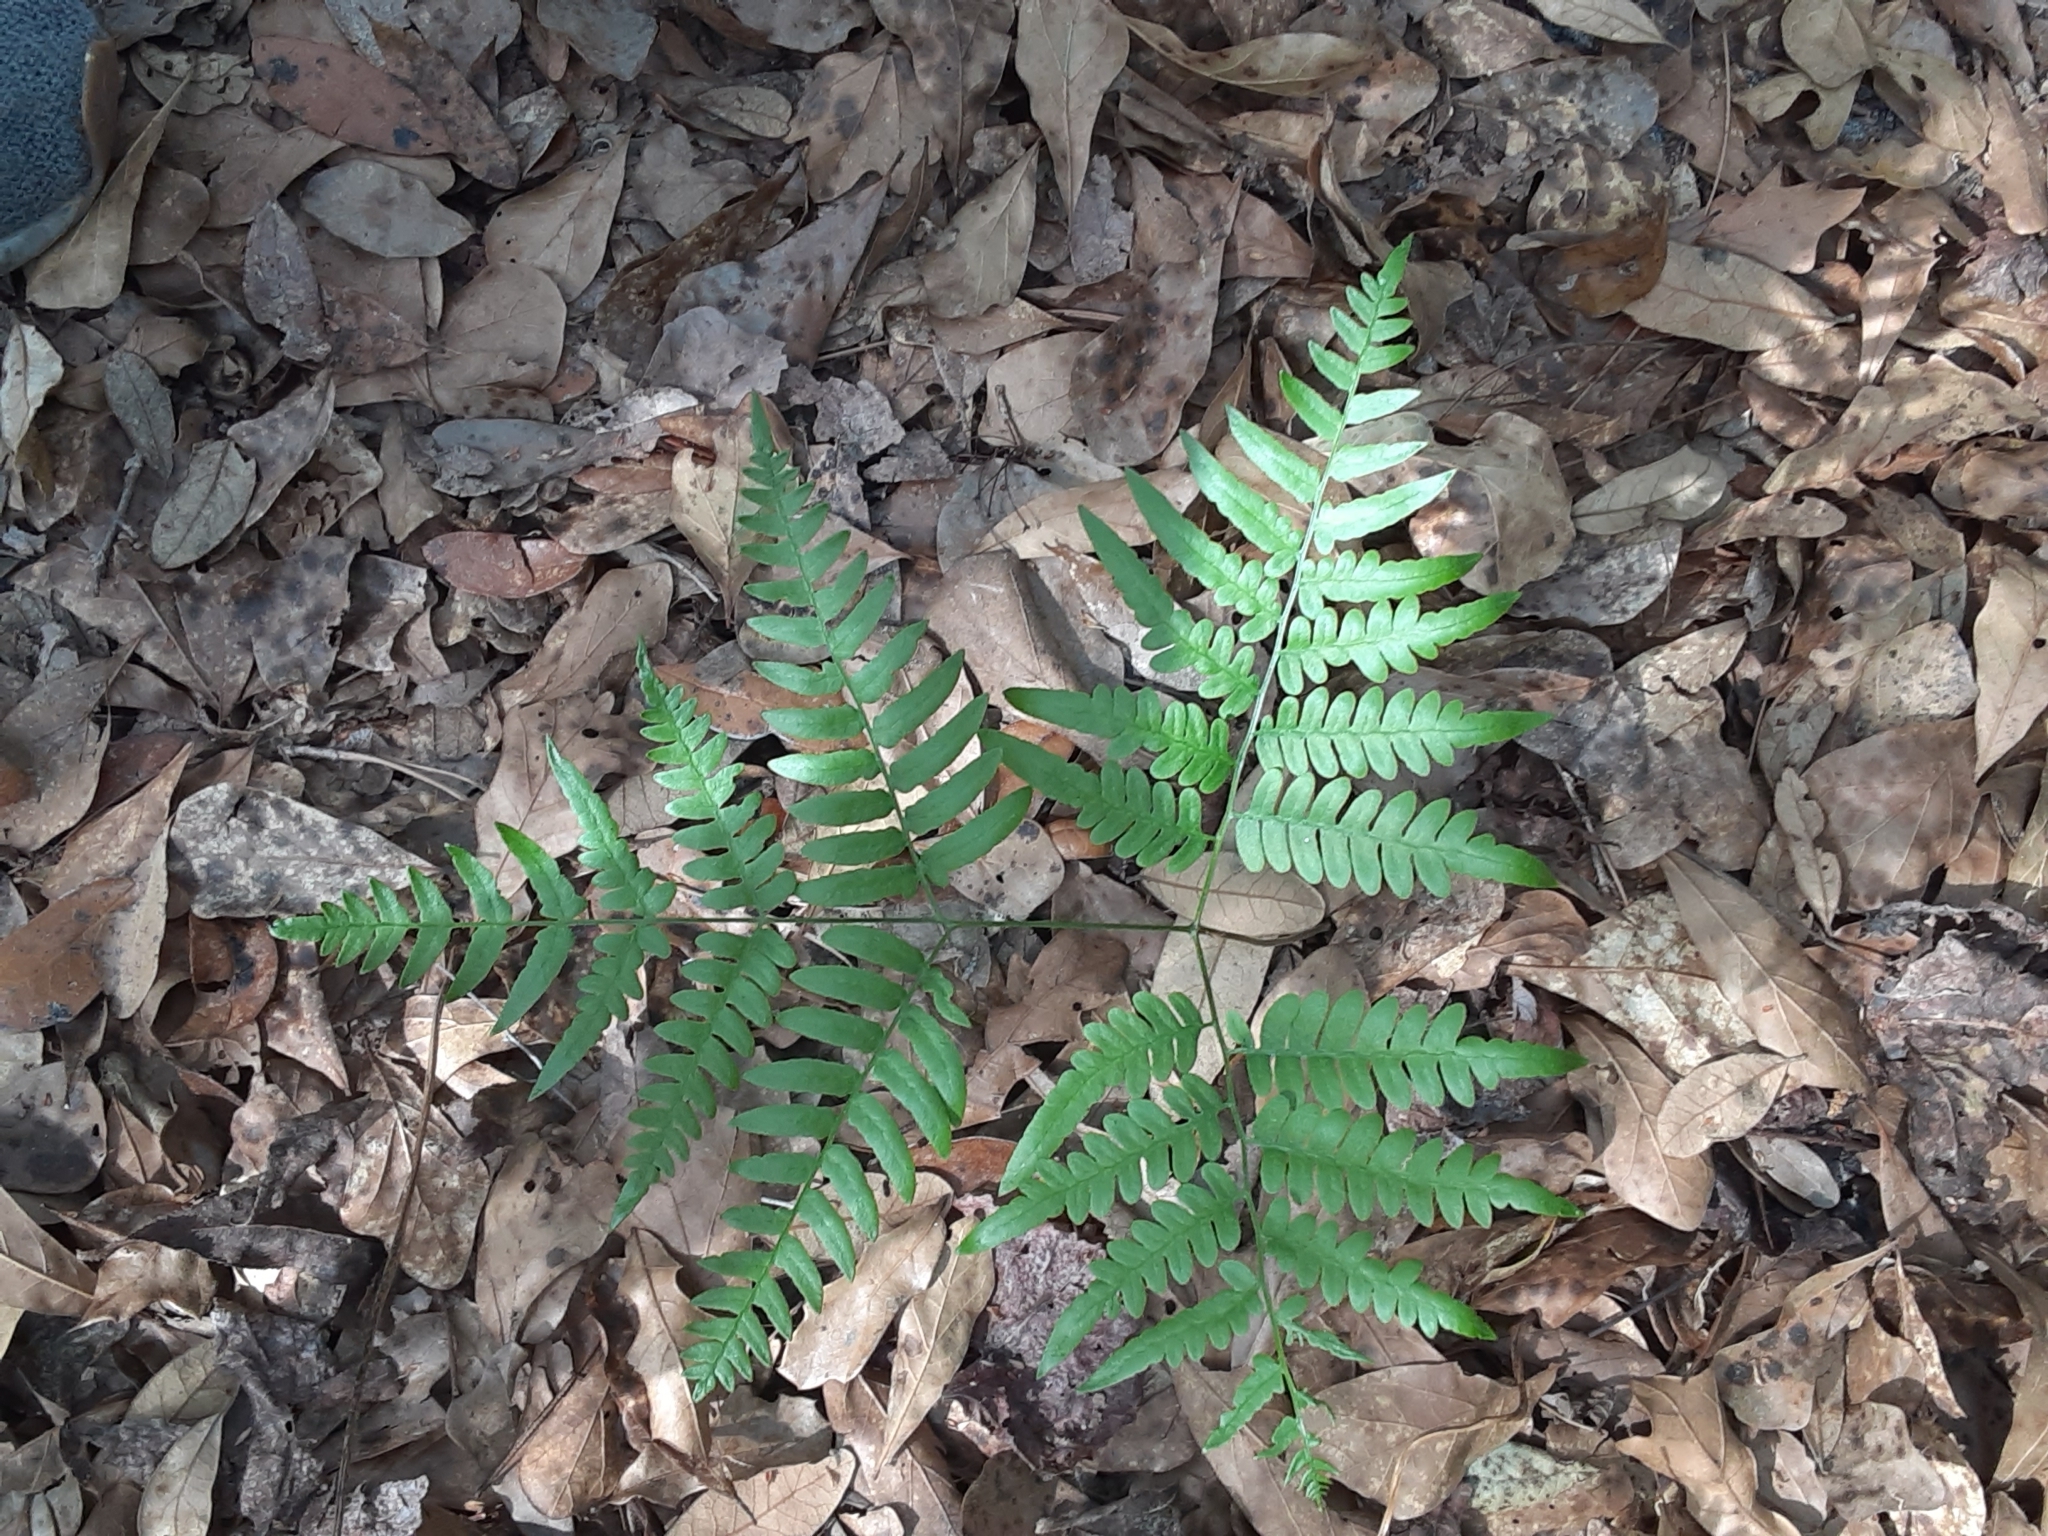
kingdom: Plantae
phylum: Tracheophyta
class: Polypodiopsida
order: Polypodiales
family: Dennstaedtiaceae
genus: Pteridium
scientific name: Pteridium
